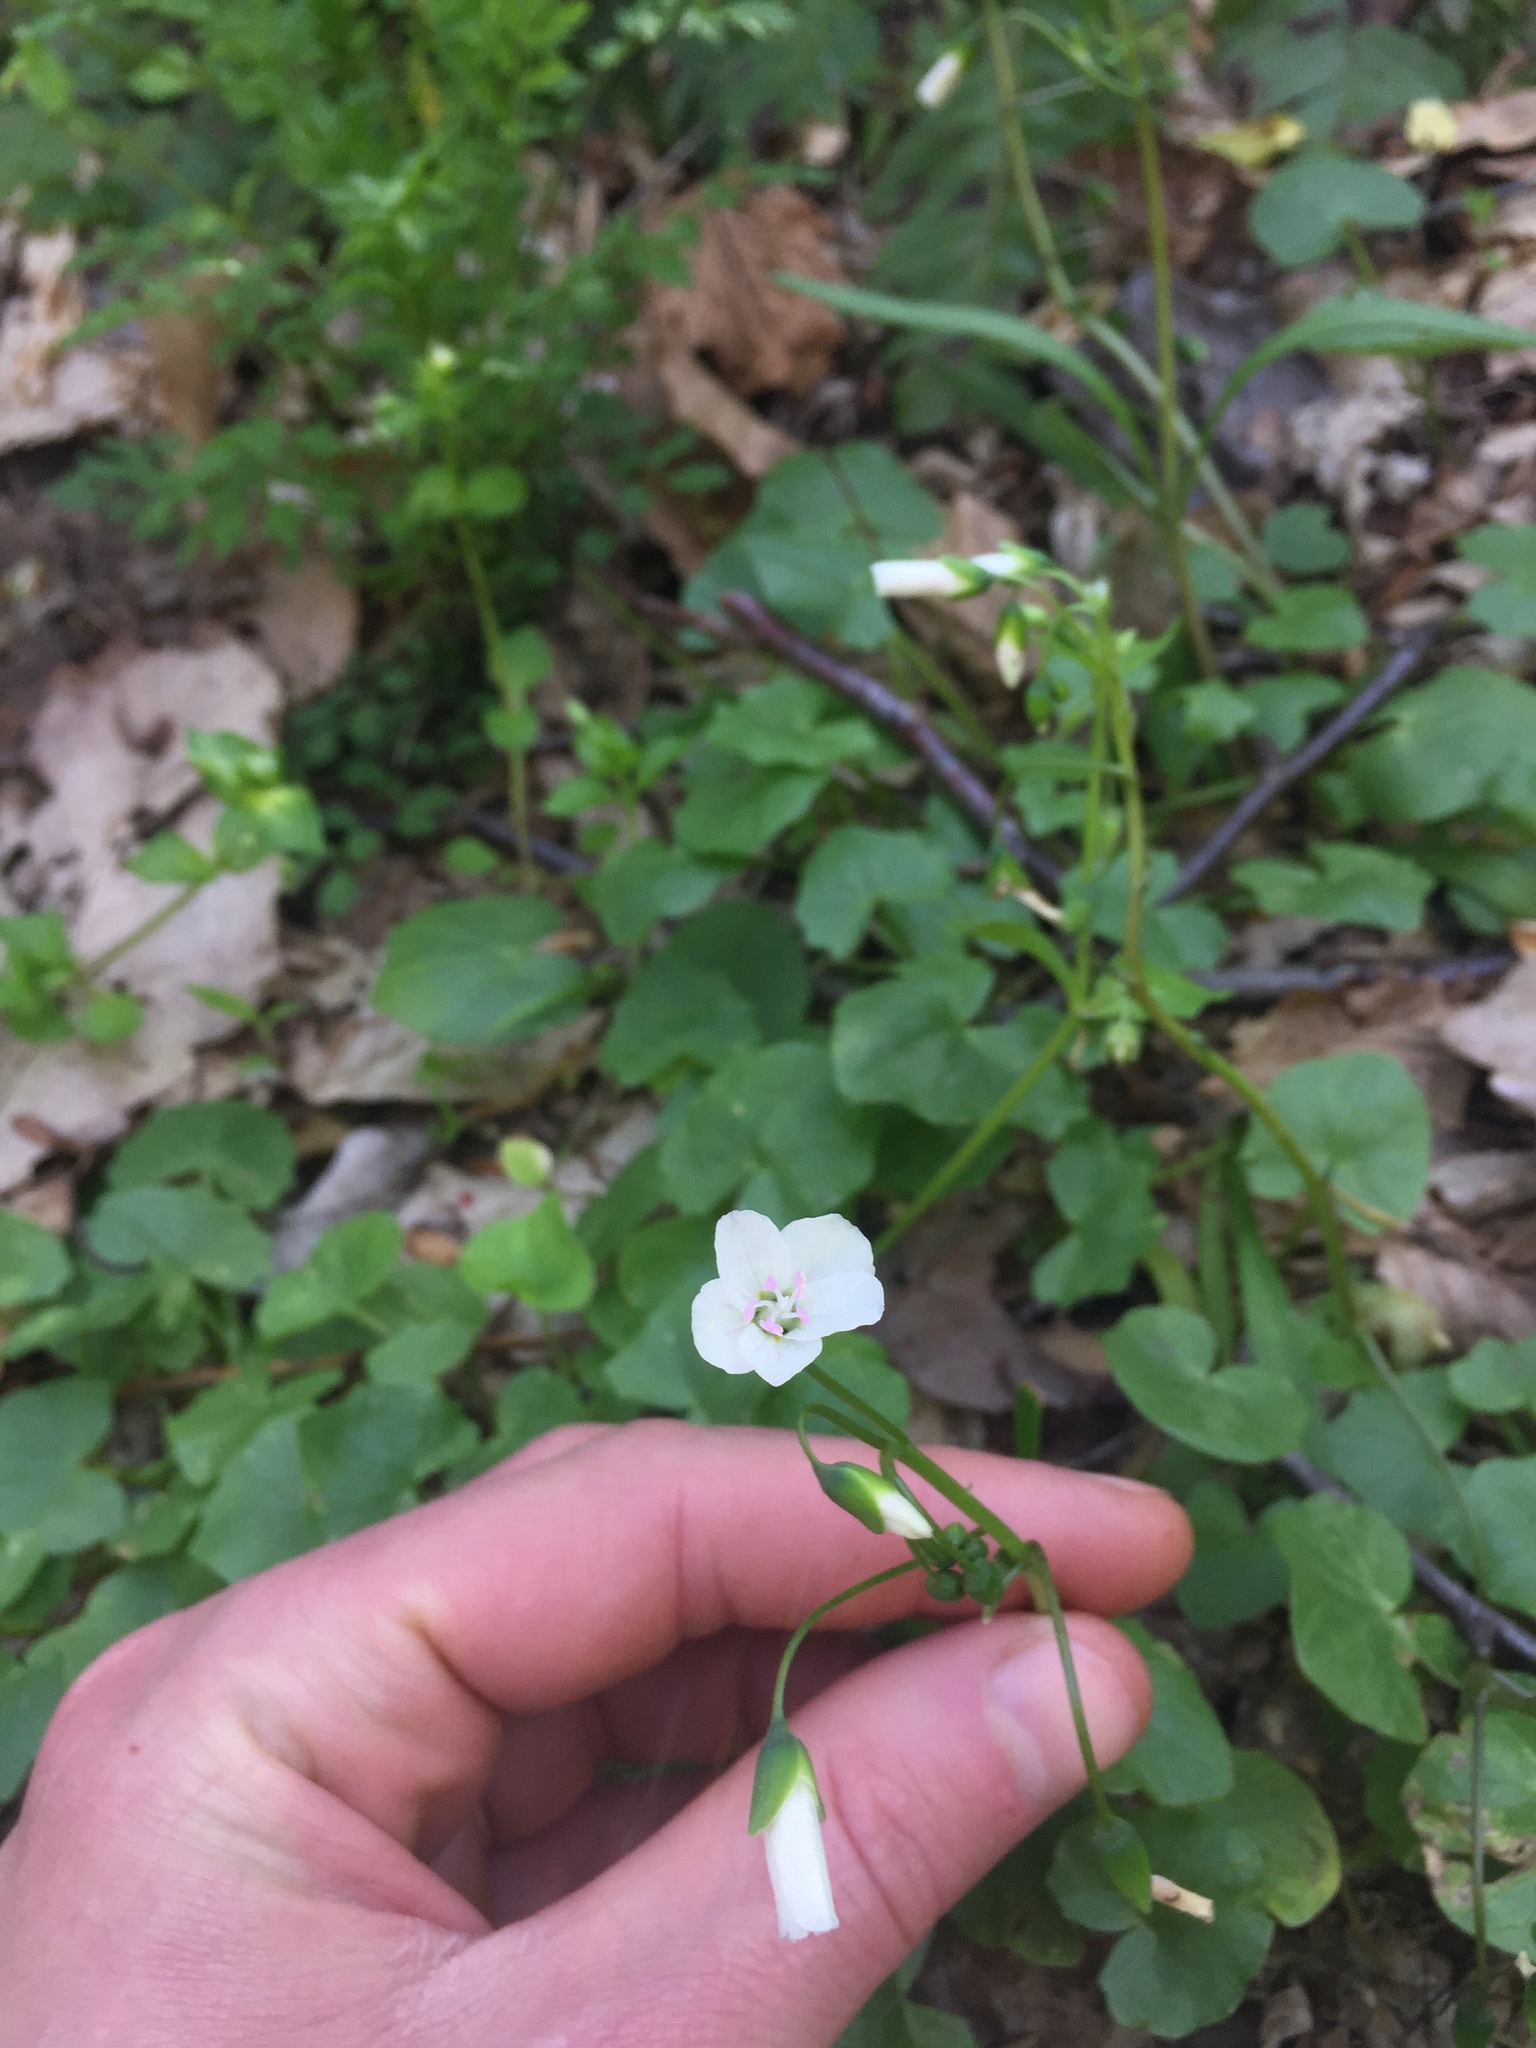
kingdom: Plantae
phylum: Tracheophyta
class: Magnoliopsida
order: Caryophyllales
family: Montiaceae
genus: Claytonia
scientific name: Claytonia virginica
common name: Virginia springbeauty
